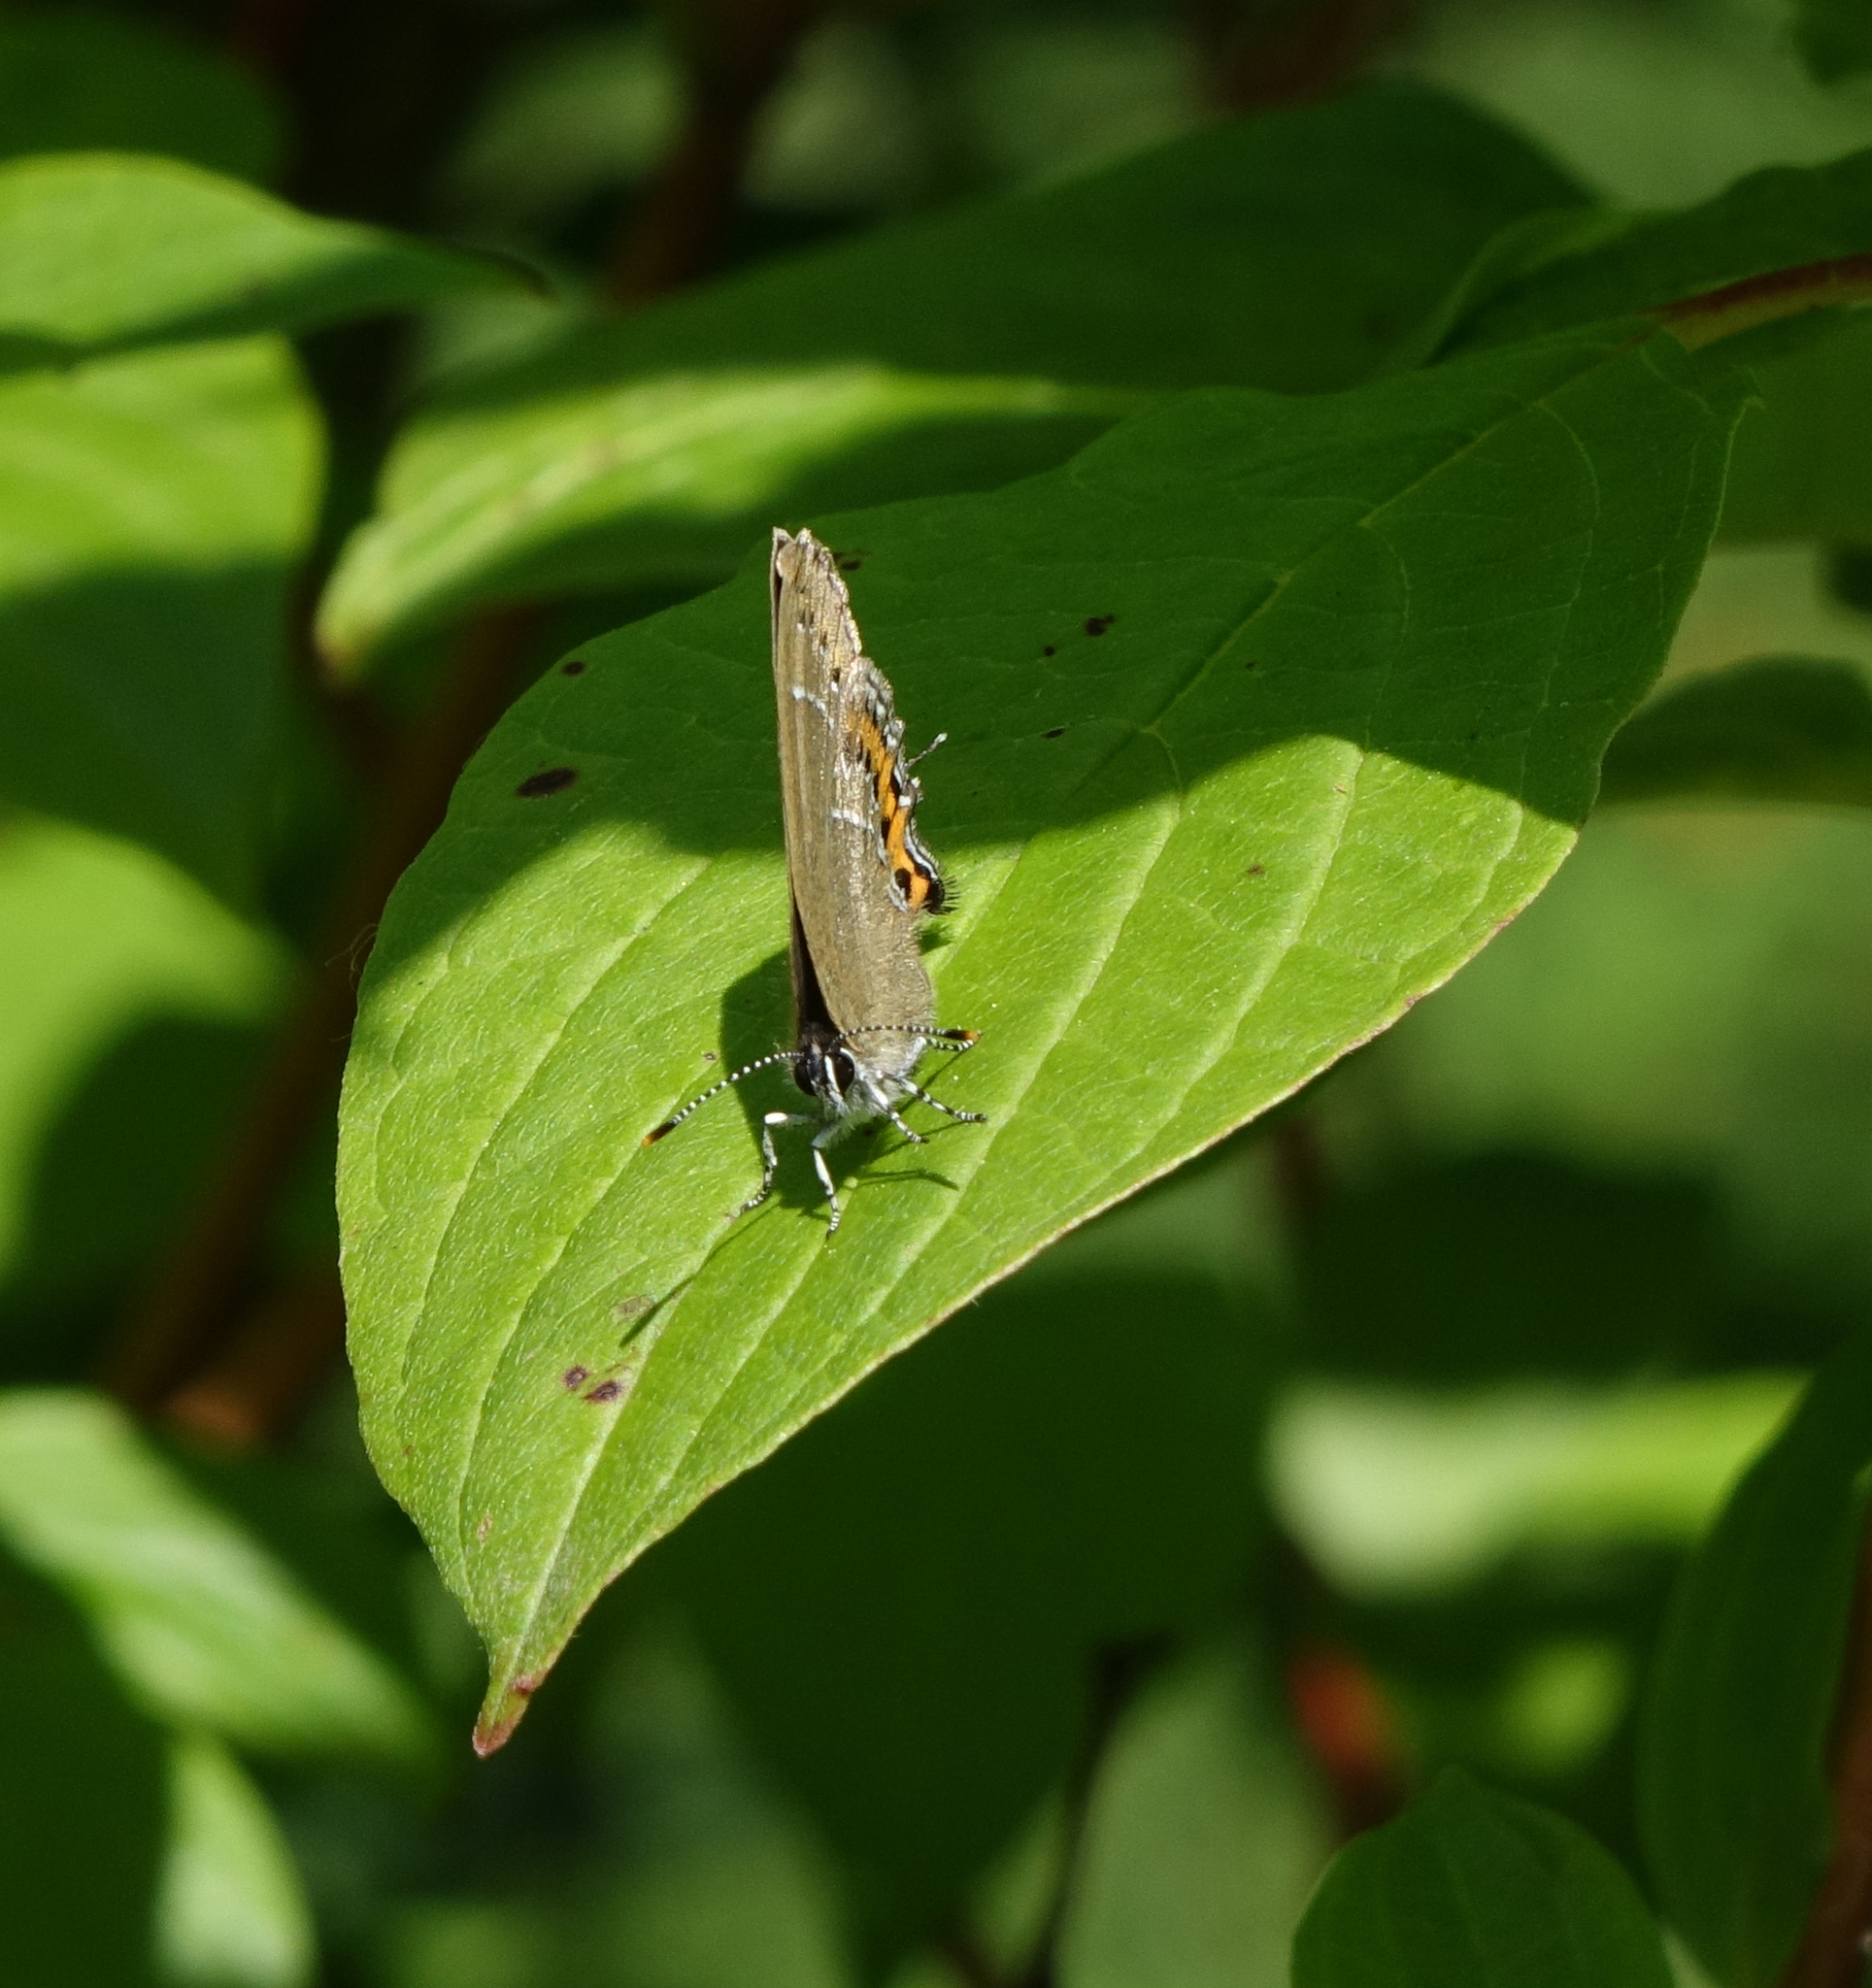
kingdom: Animalia
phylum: Arthropoda
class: Insecta
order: Lepidoptera
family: Lycaenidae
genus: Fixsenia
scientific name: Fixsenia pruni
